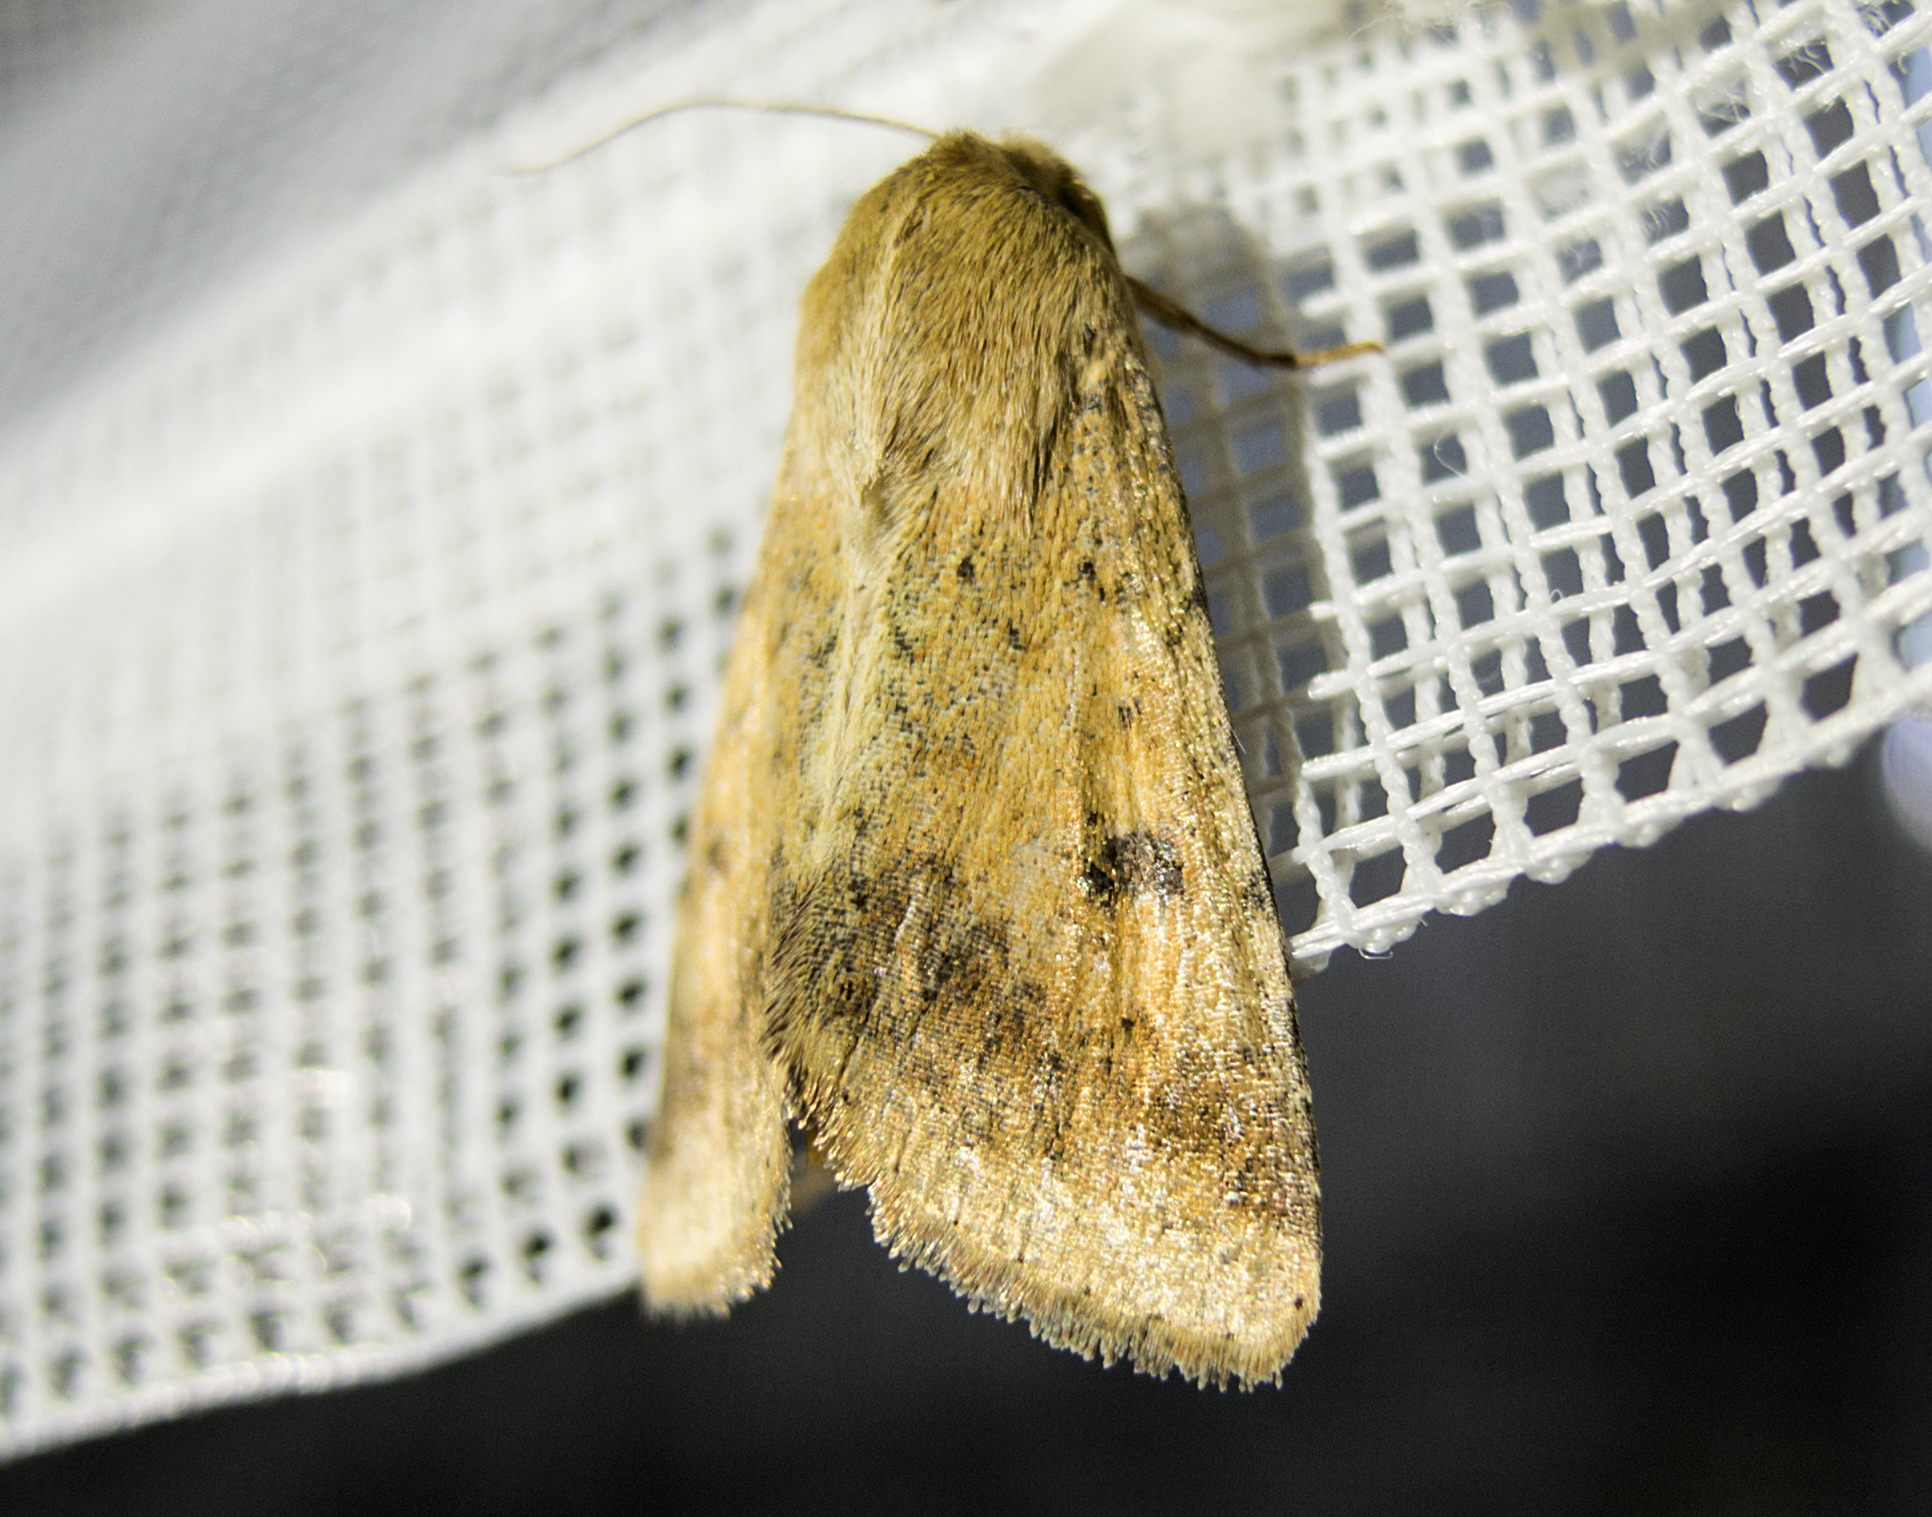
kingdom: Animalia
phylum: Arthropoda
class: Insecta
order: Lepidoptera
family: Noctuidae
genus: Helicoverpa
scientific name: Helicoverpa armigera
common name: Cotton bollworm
